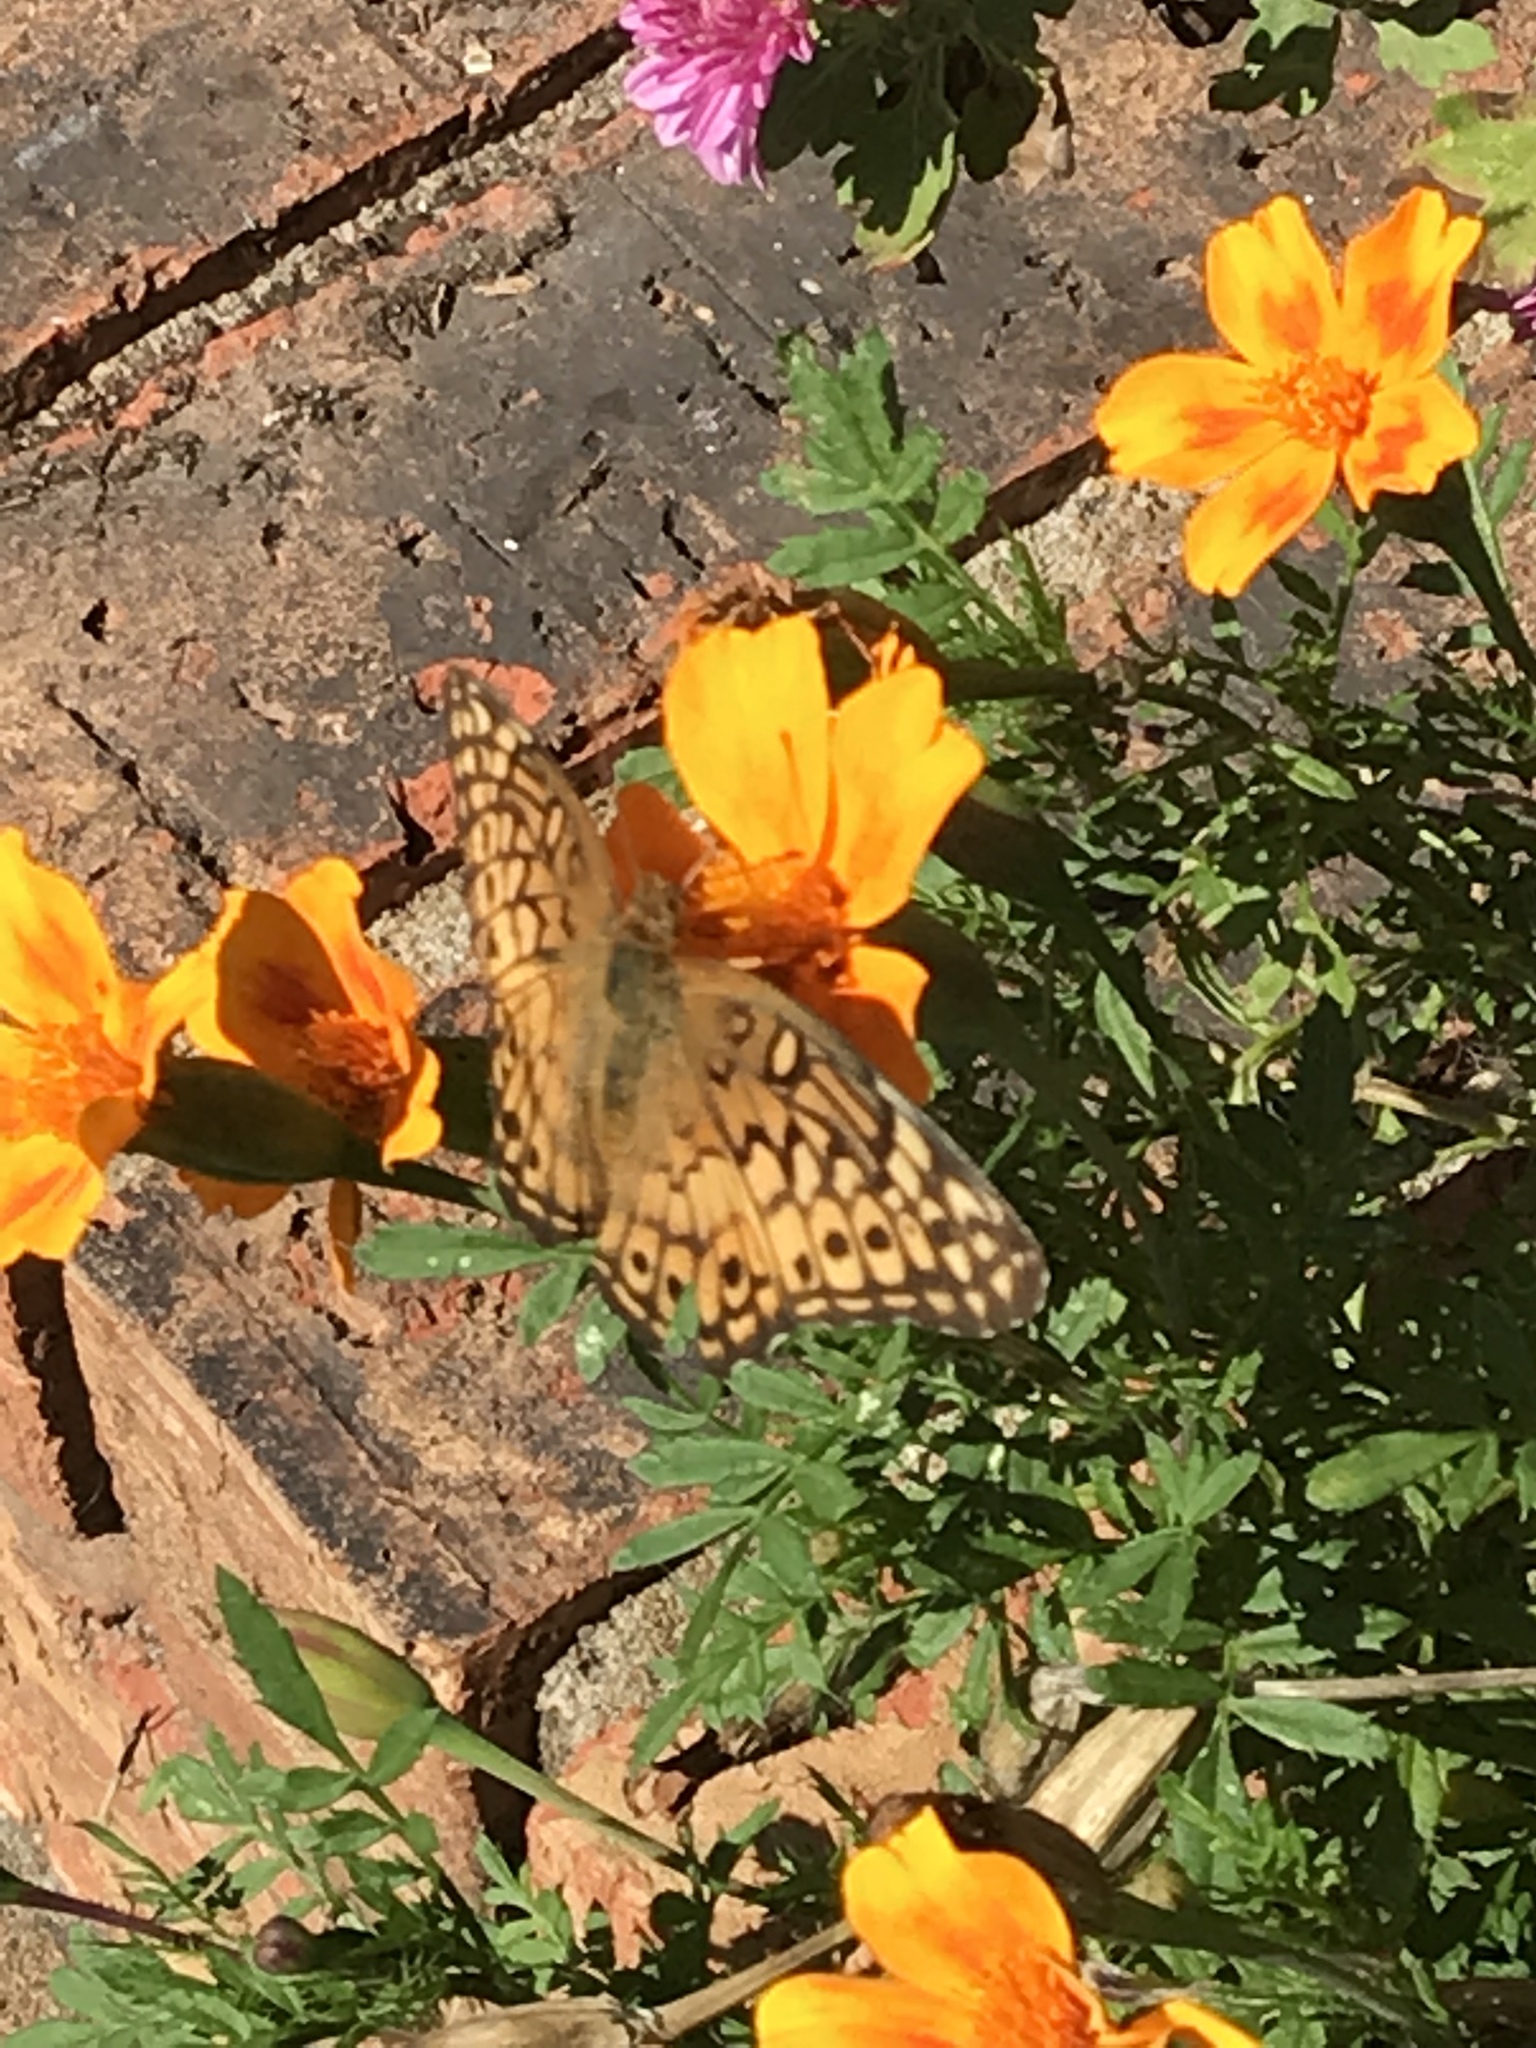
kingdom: Animalia
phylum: Arthropoda
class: Insecta
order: Lepidoptera
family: Nymphalidae
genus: Euptoieta
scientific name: Euptoieta claudia
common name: Variegated fritillary
